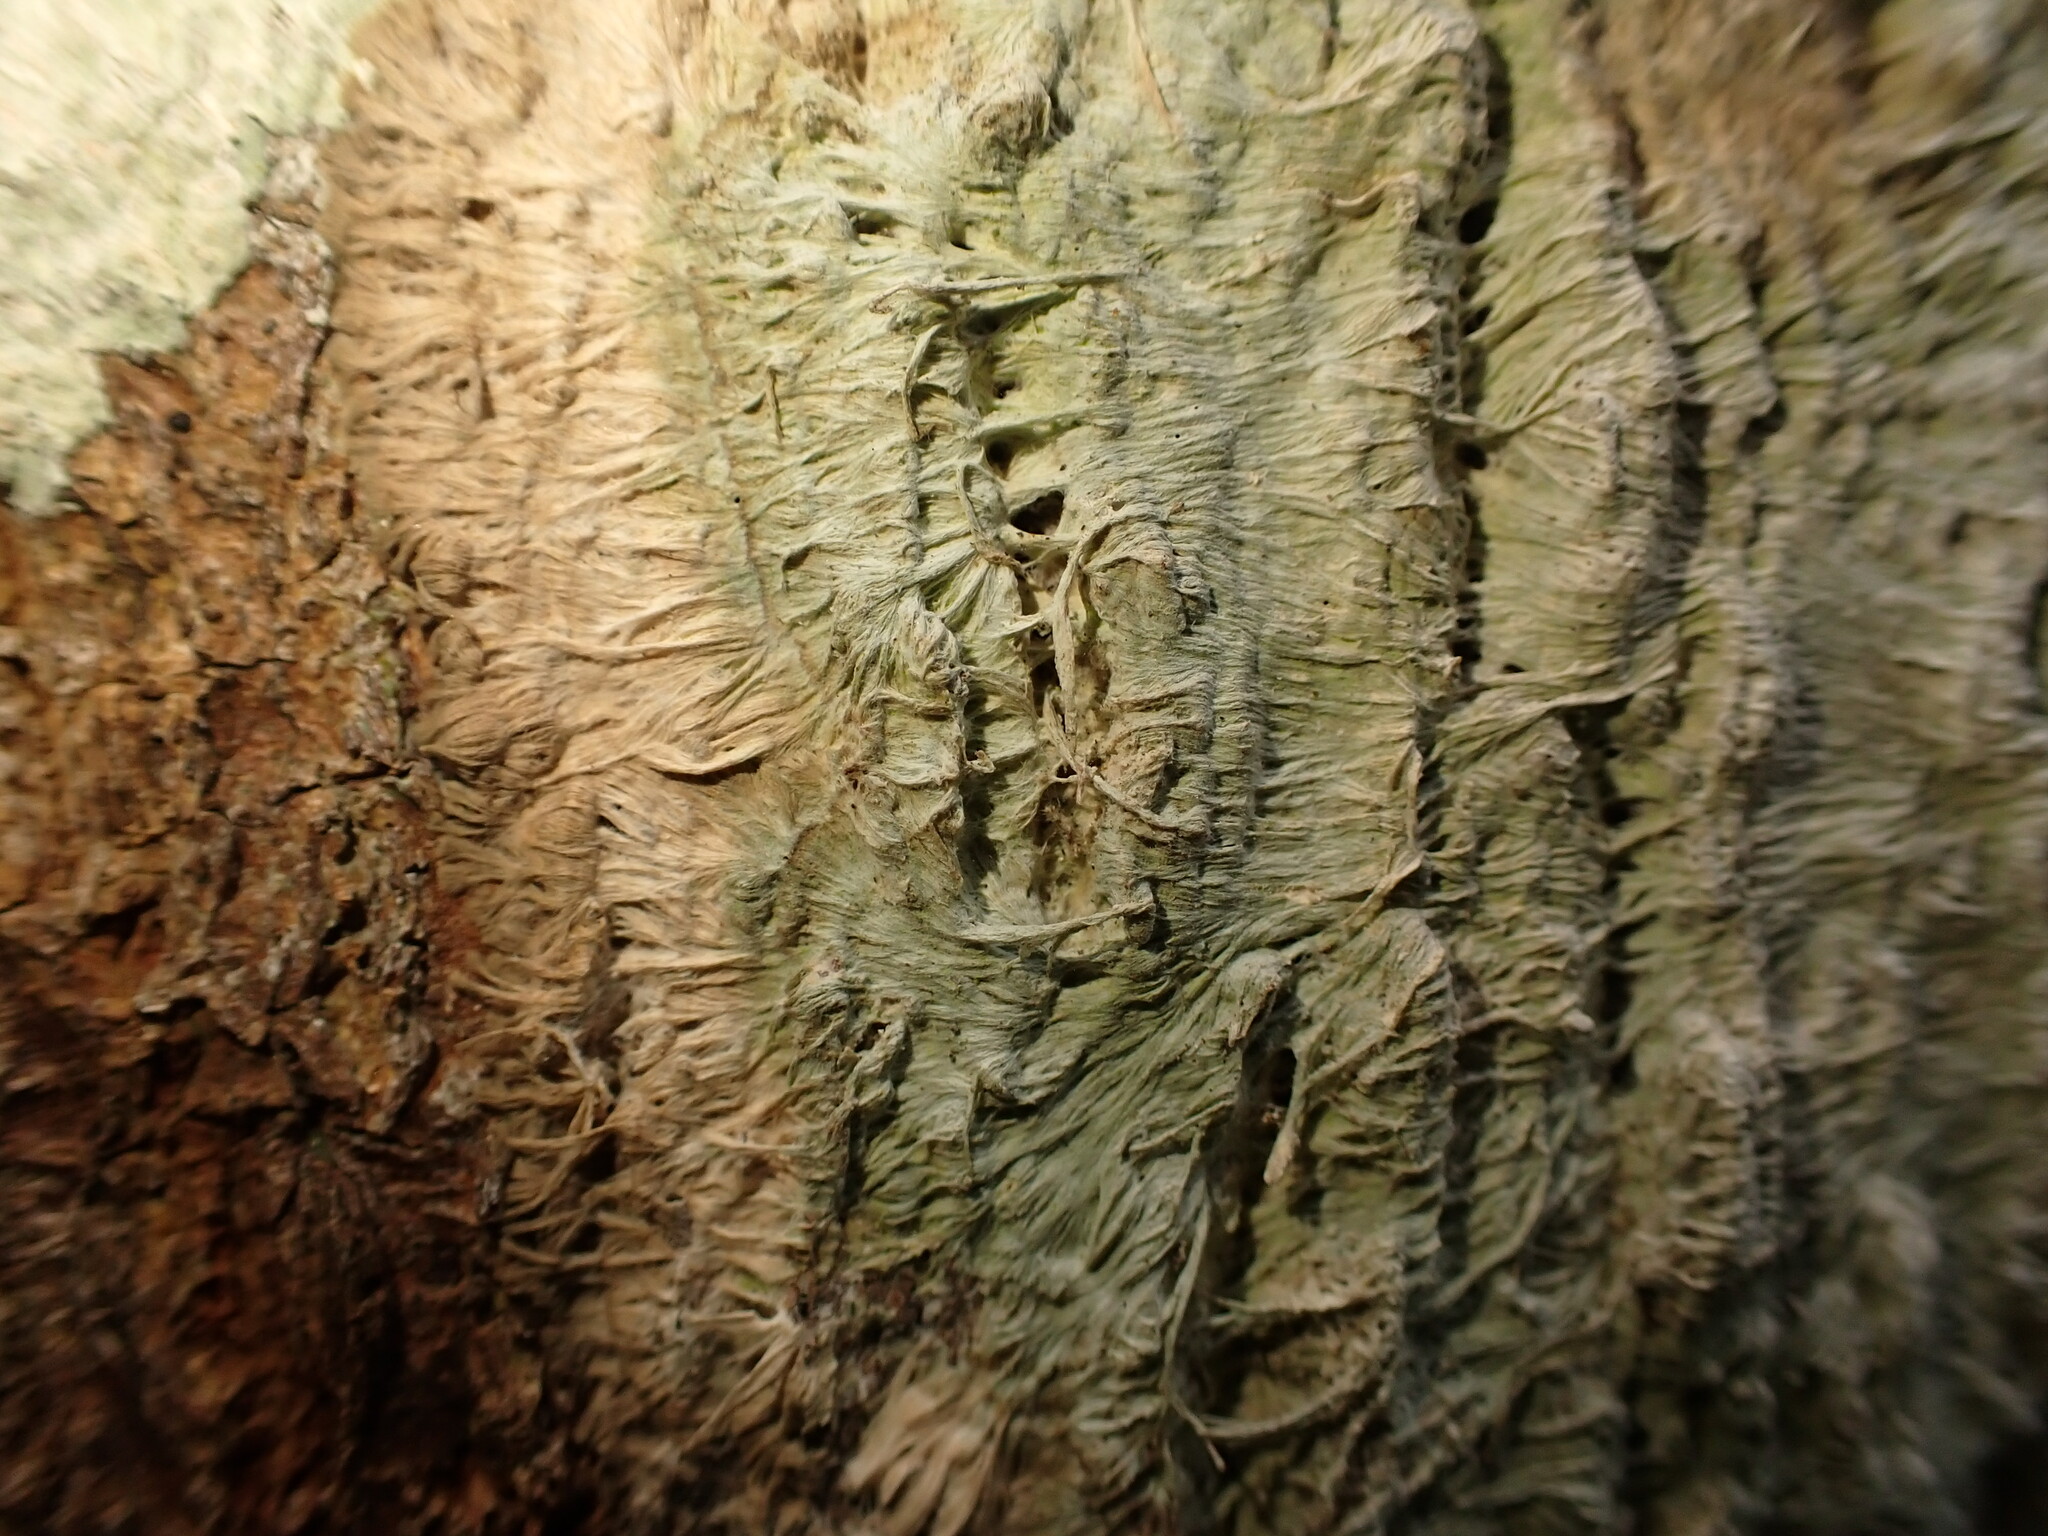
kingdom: Fungi
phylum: Ascomycota
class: Arthoniomycetes
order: Arthoniales
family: Roccellaceae
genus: Syncesia
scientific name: Syncesia rhizomorpha
